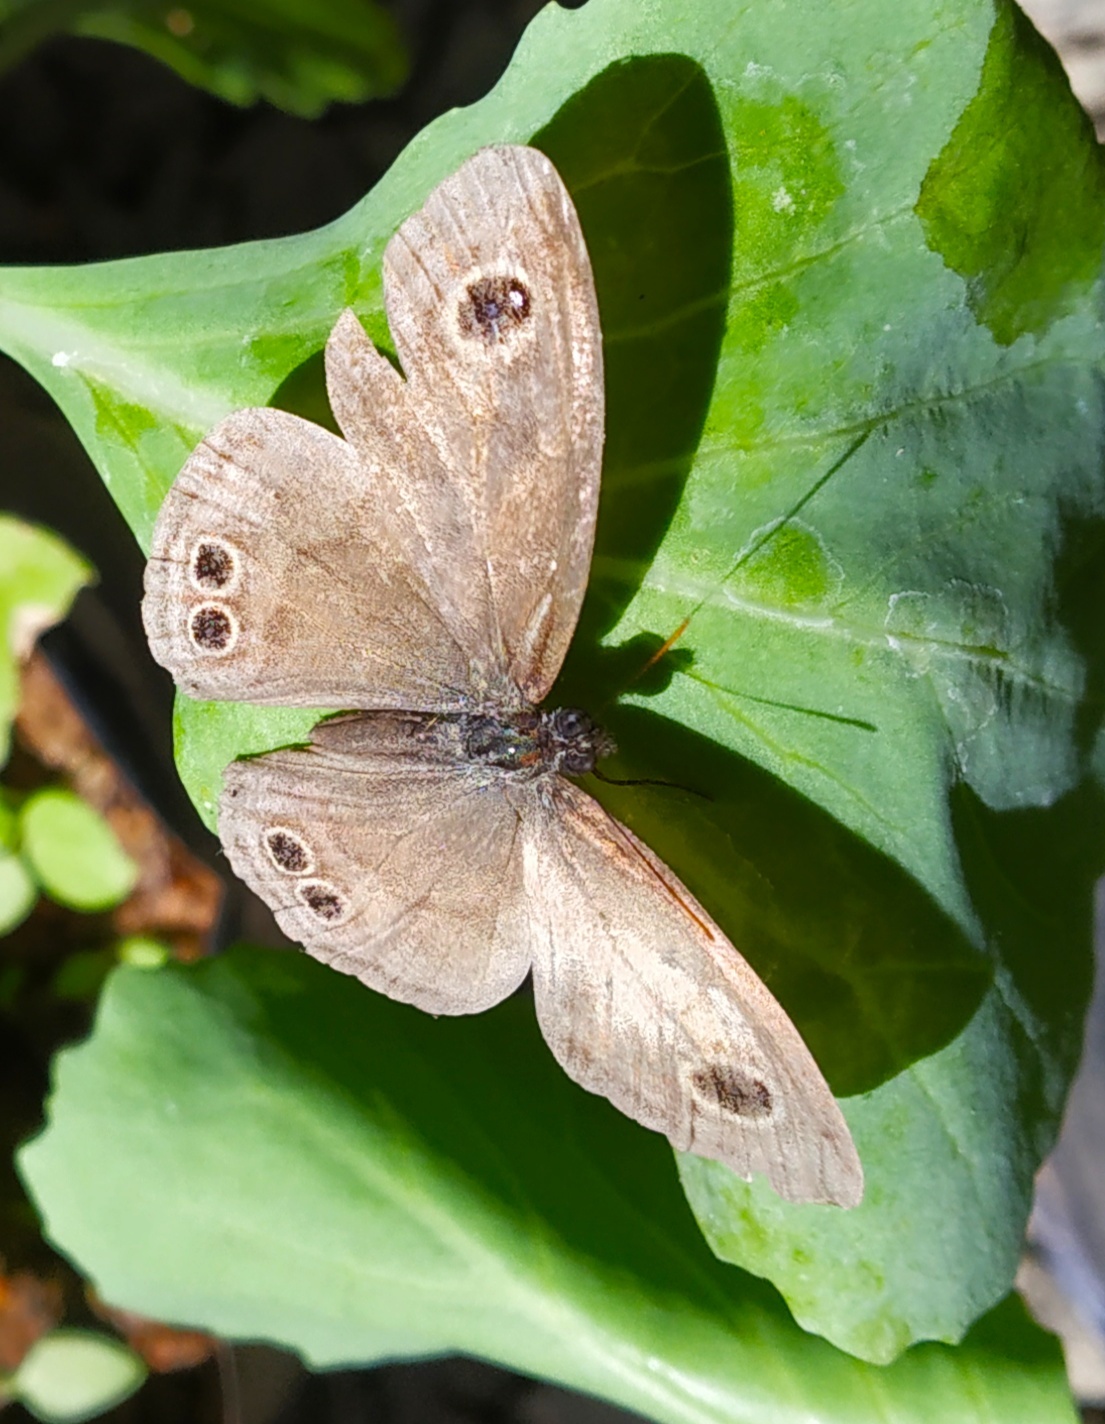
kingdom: Animalia
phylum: Arthropoda
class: Insecta
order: Lepidoptera
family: Nymphalidae
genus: Ypthima
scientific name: Ypthima baldus
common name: Common five-ring
